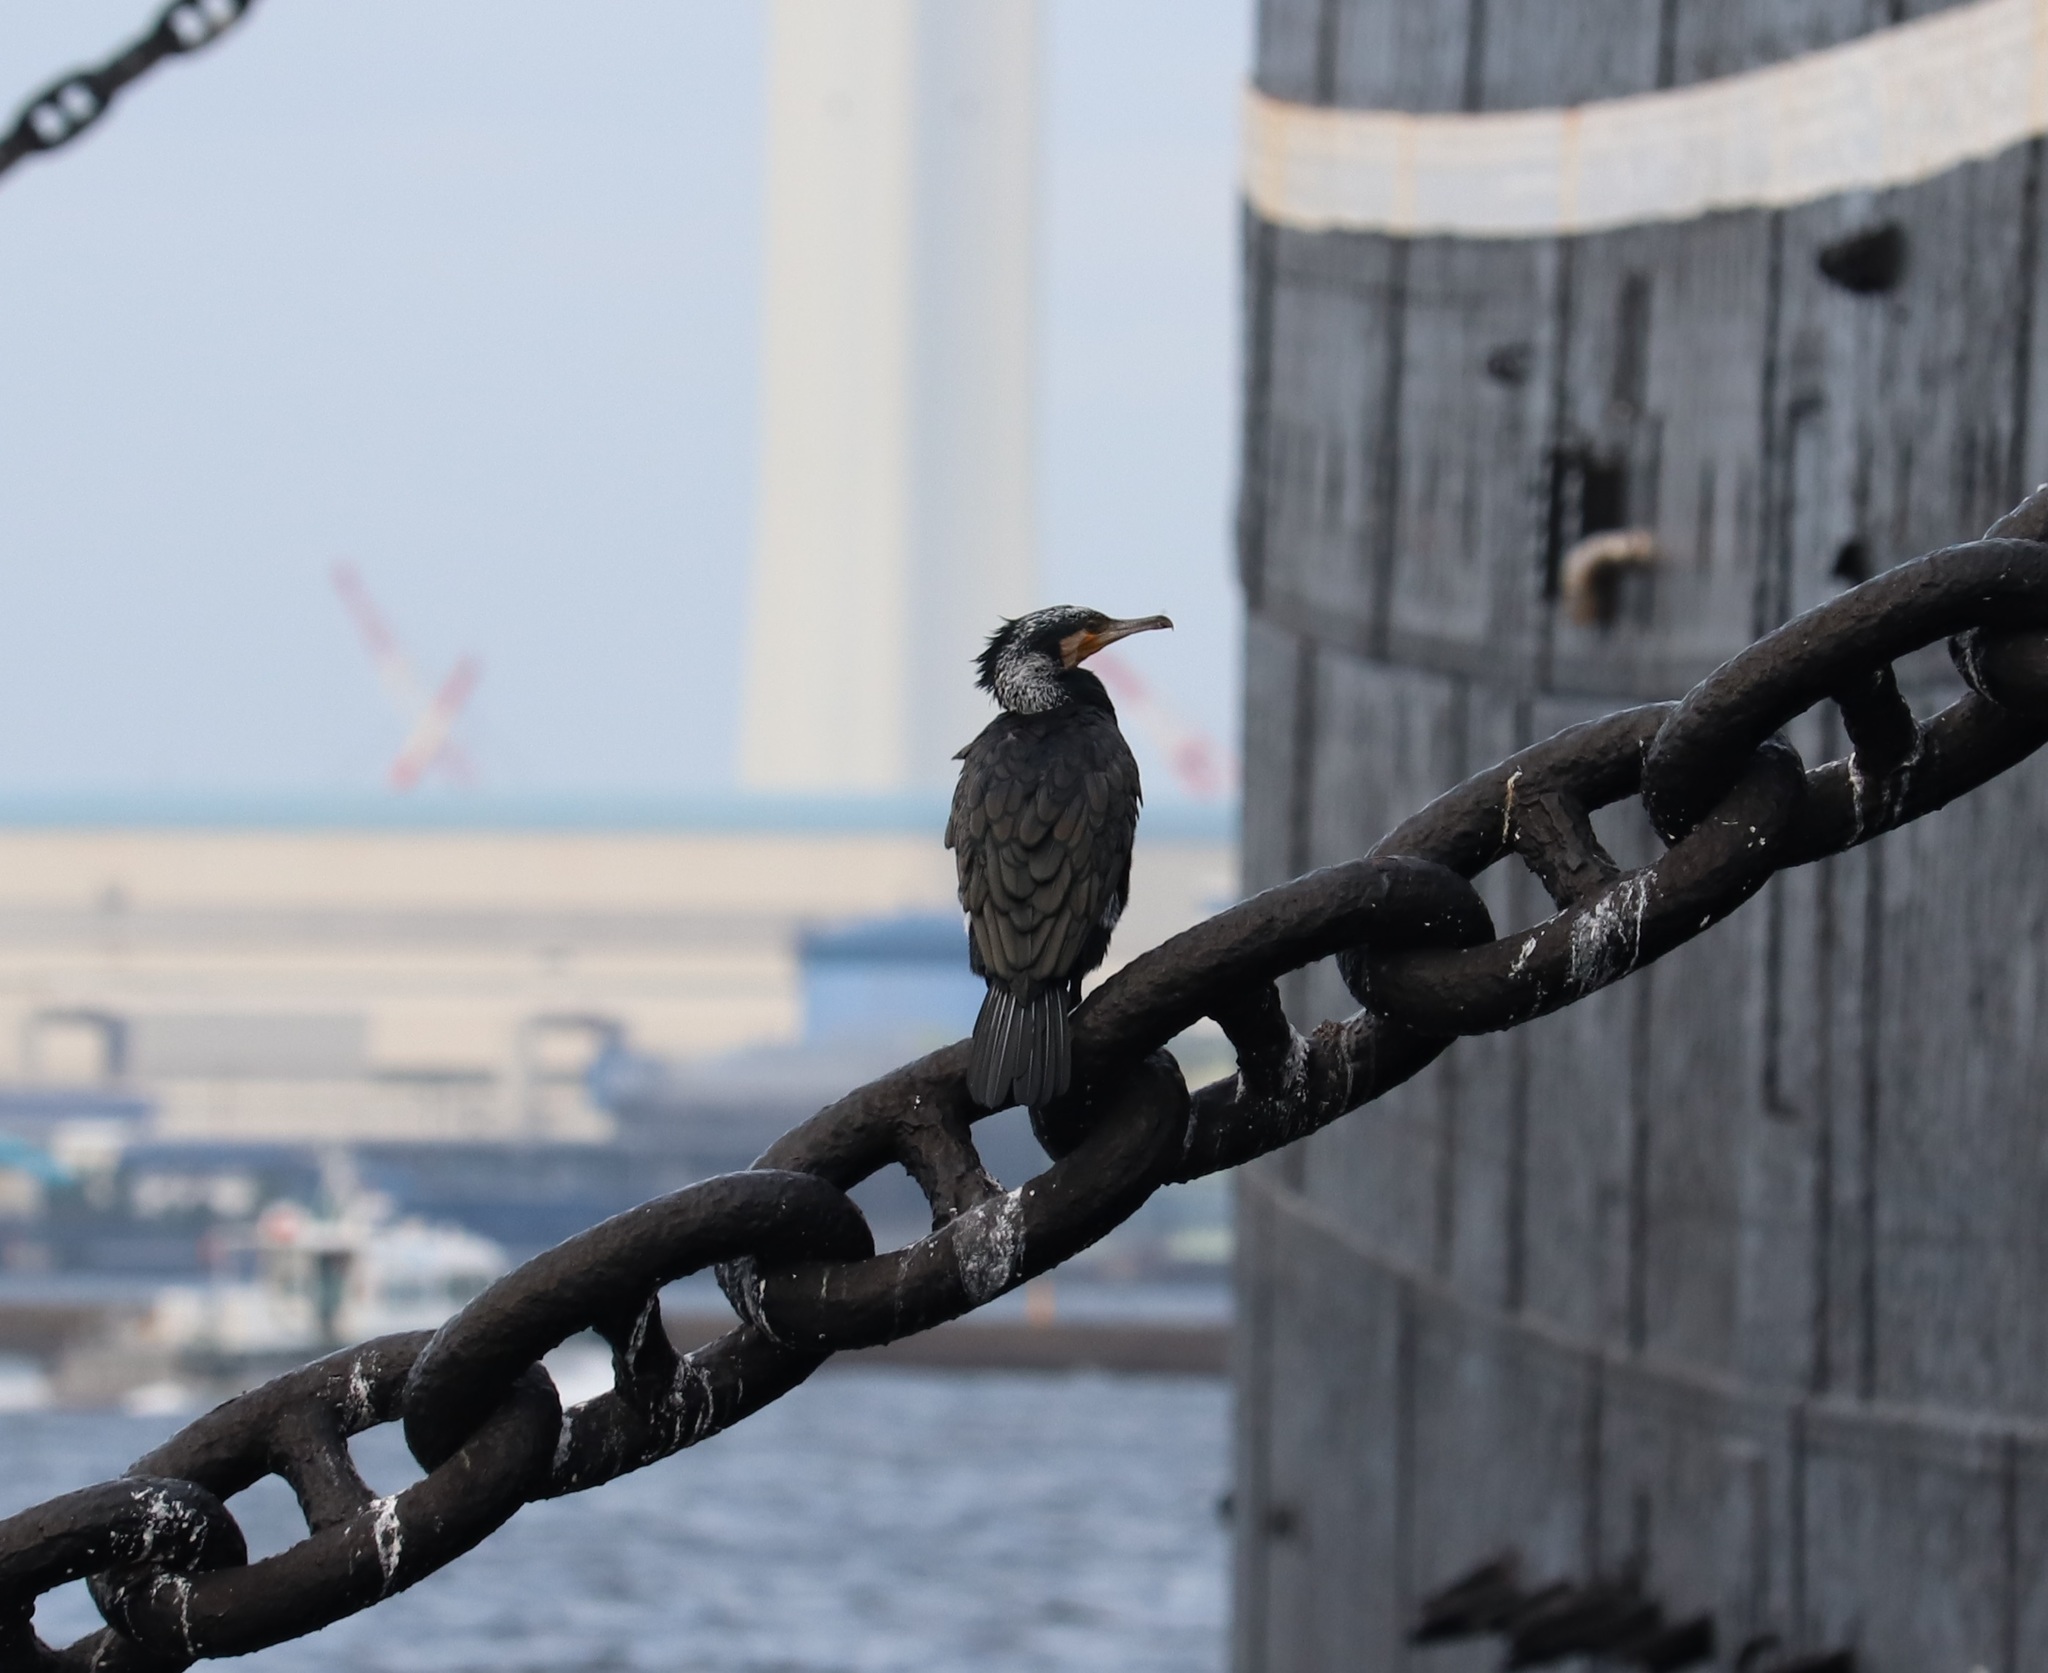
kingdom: Animalia
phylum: Chordata
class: Aves
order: Suliformes
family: Phalacrocoracidae
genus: Phalacrocorax
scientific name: Phalacrocorax carbo
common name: Great cormorant
